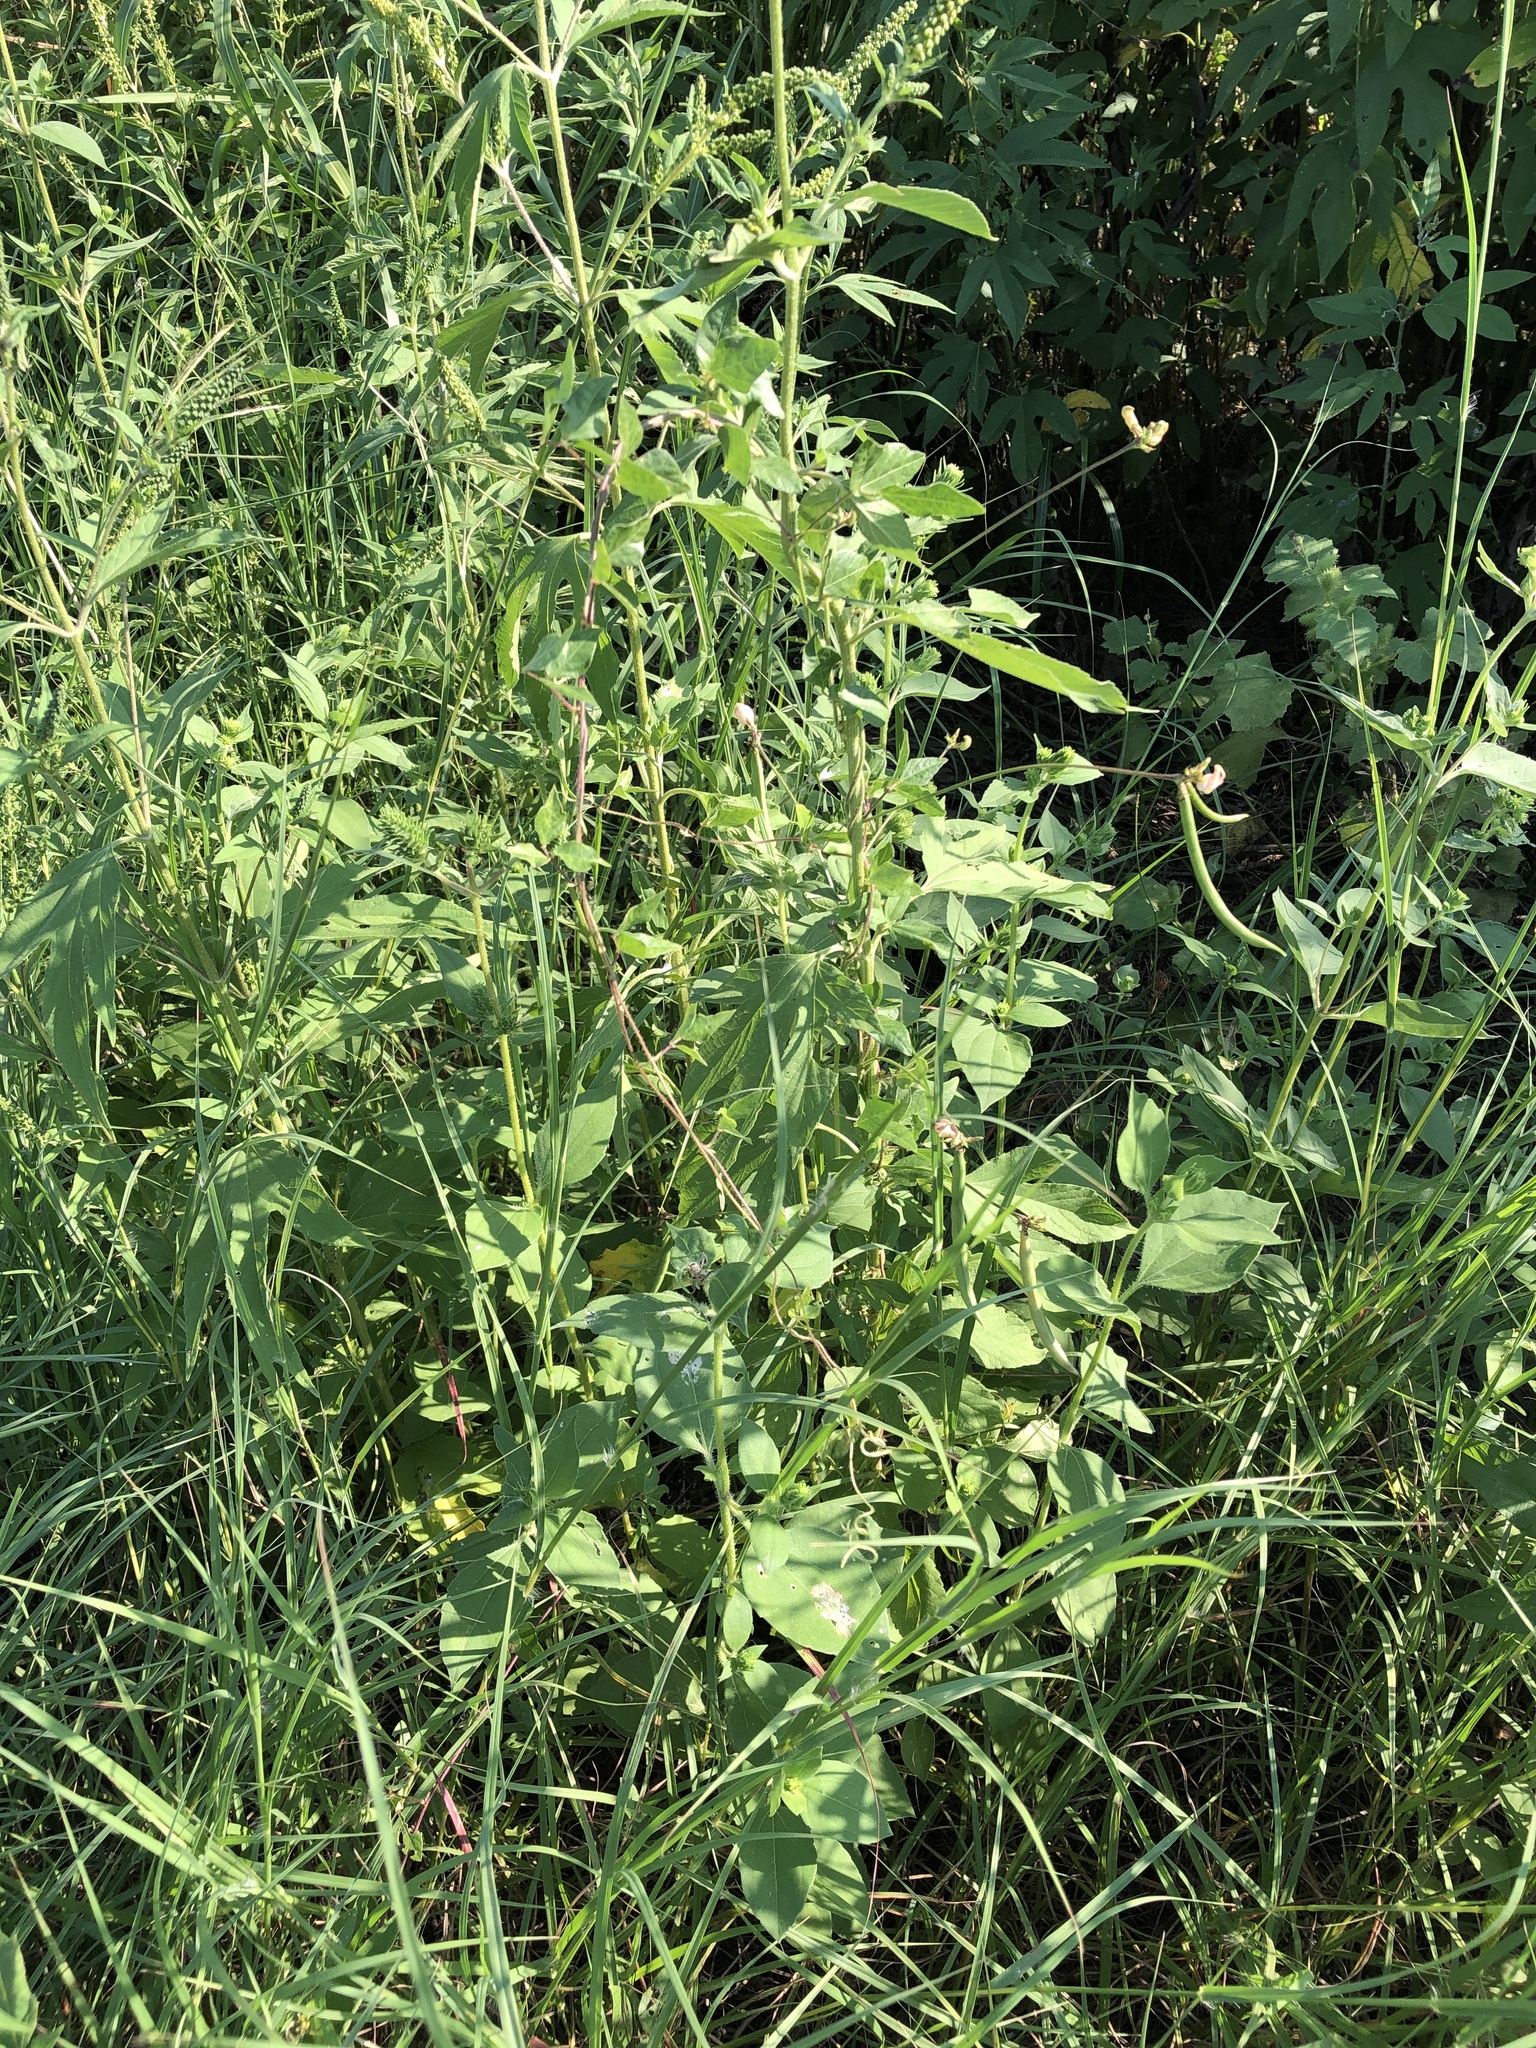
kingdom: Plantae
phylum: Tracheophyta
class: Magnoliopsida
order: Fabales
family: Fabaceae
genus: Strophostyles
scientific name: Strophostyles helvola
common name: Trailing wild bean
